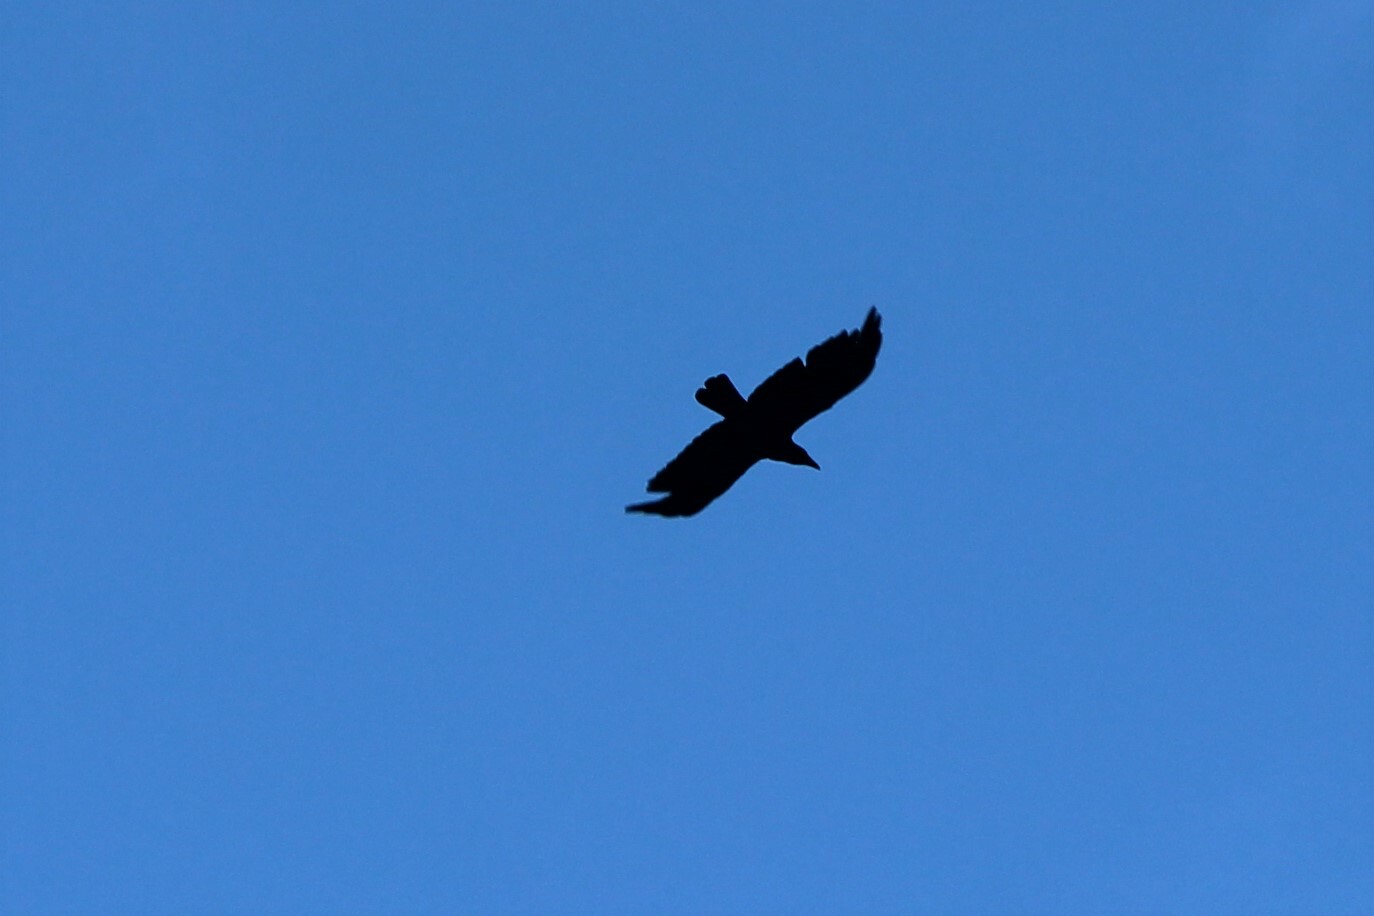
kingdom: Animalia
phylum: Chordata
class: Aves
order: Passeriformes
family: Corvidae
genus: Corvus
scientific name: Corvus brachyrhynchos
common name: American crow
